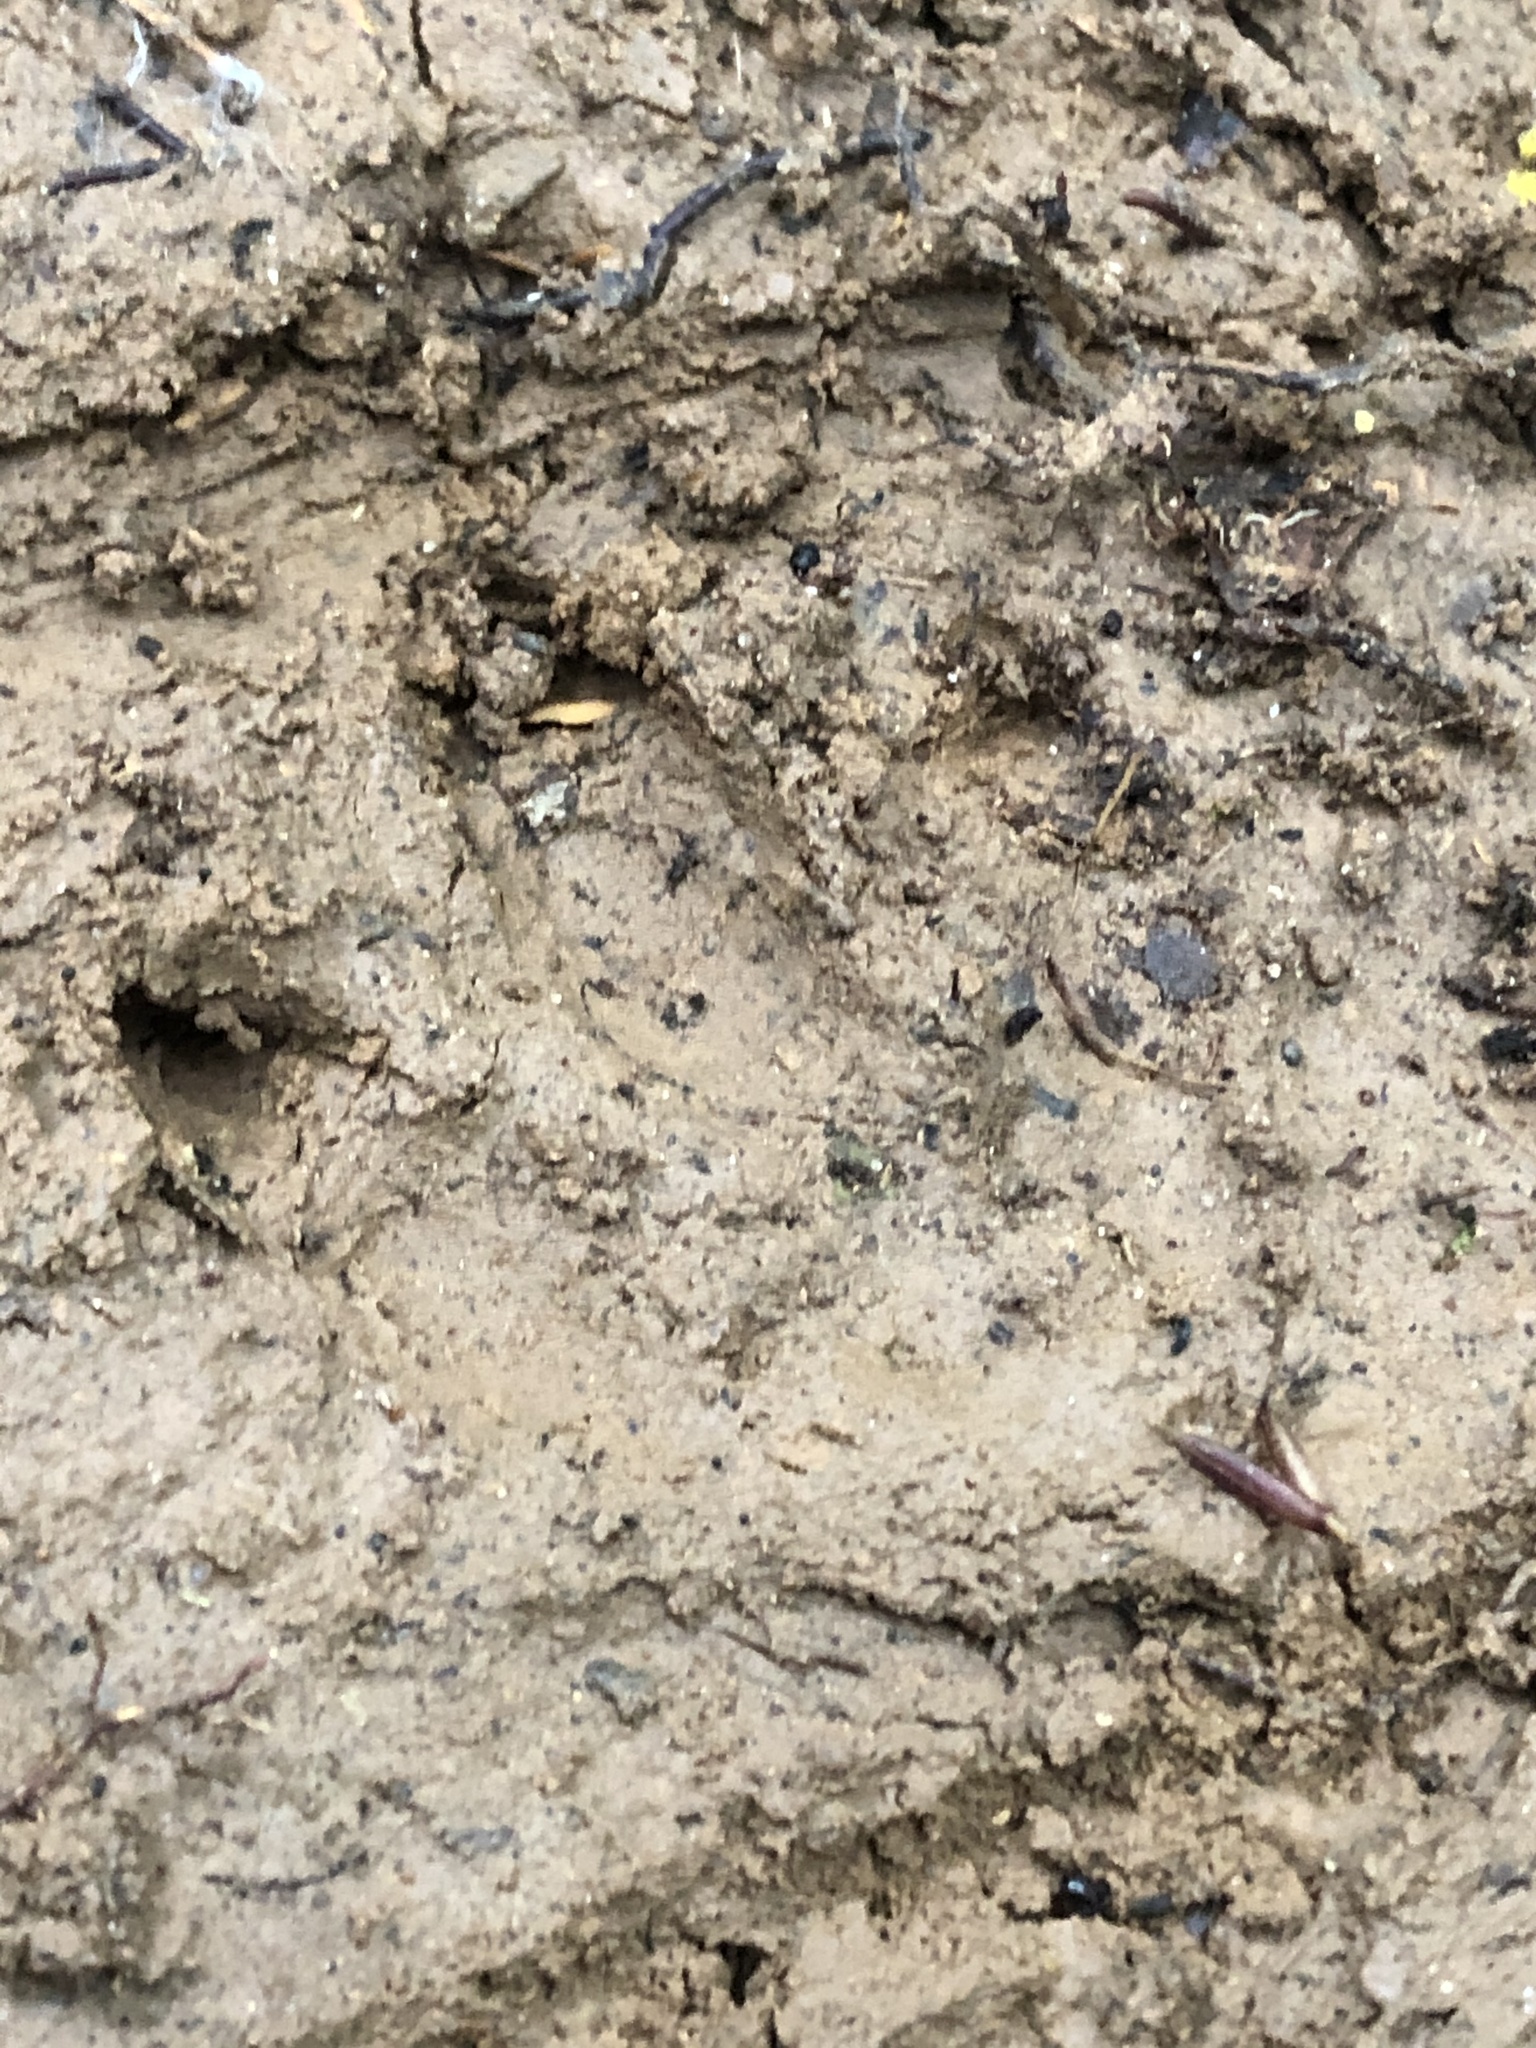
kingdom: Animalia
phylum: Chordata
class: Mammalia
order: Perissodactyla
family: Tapiridae
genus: Tapirus
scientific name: Tapirus terrestris
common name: Brazilian tapir
